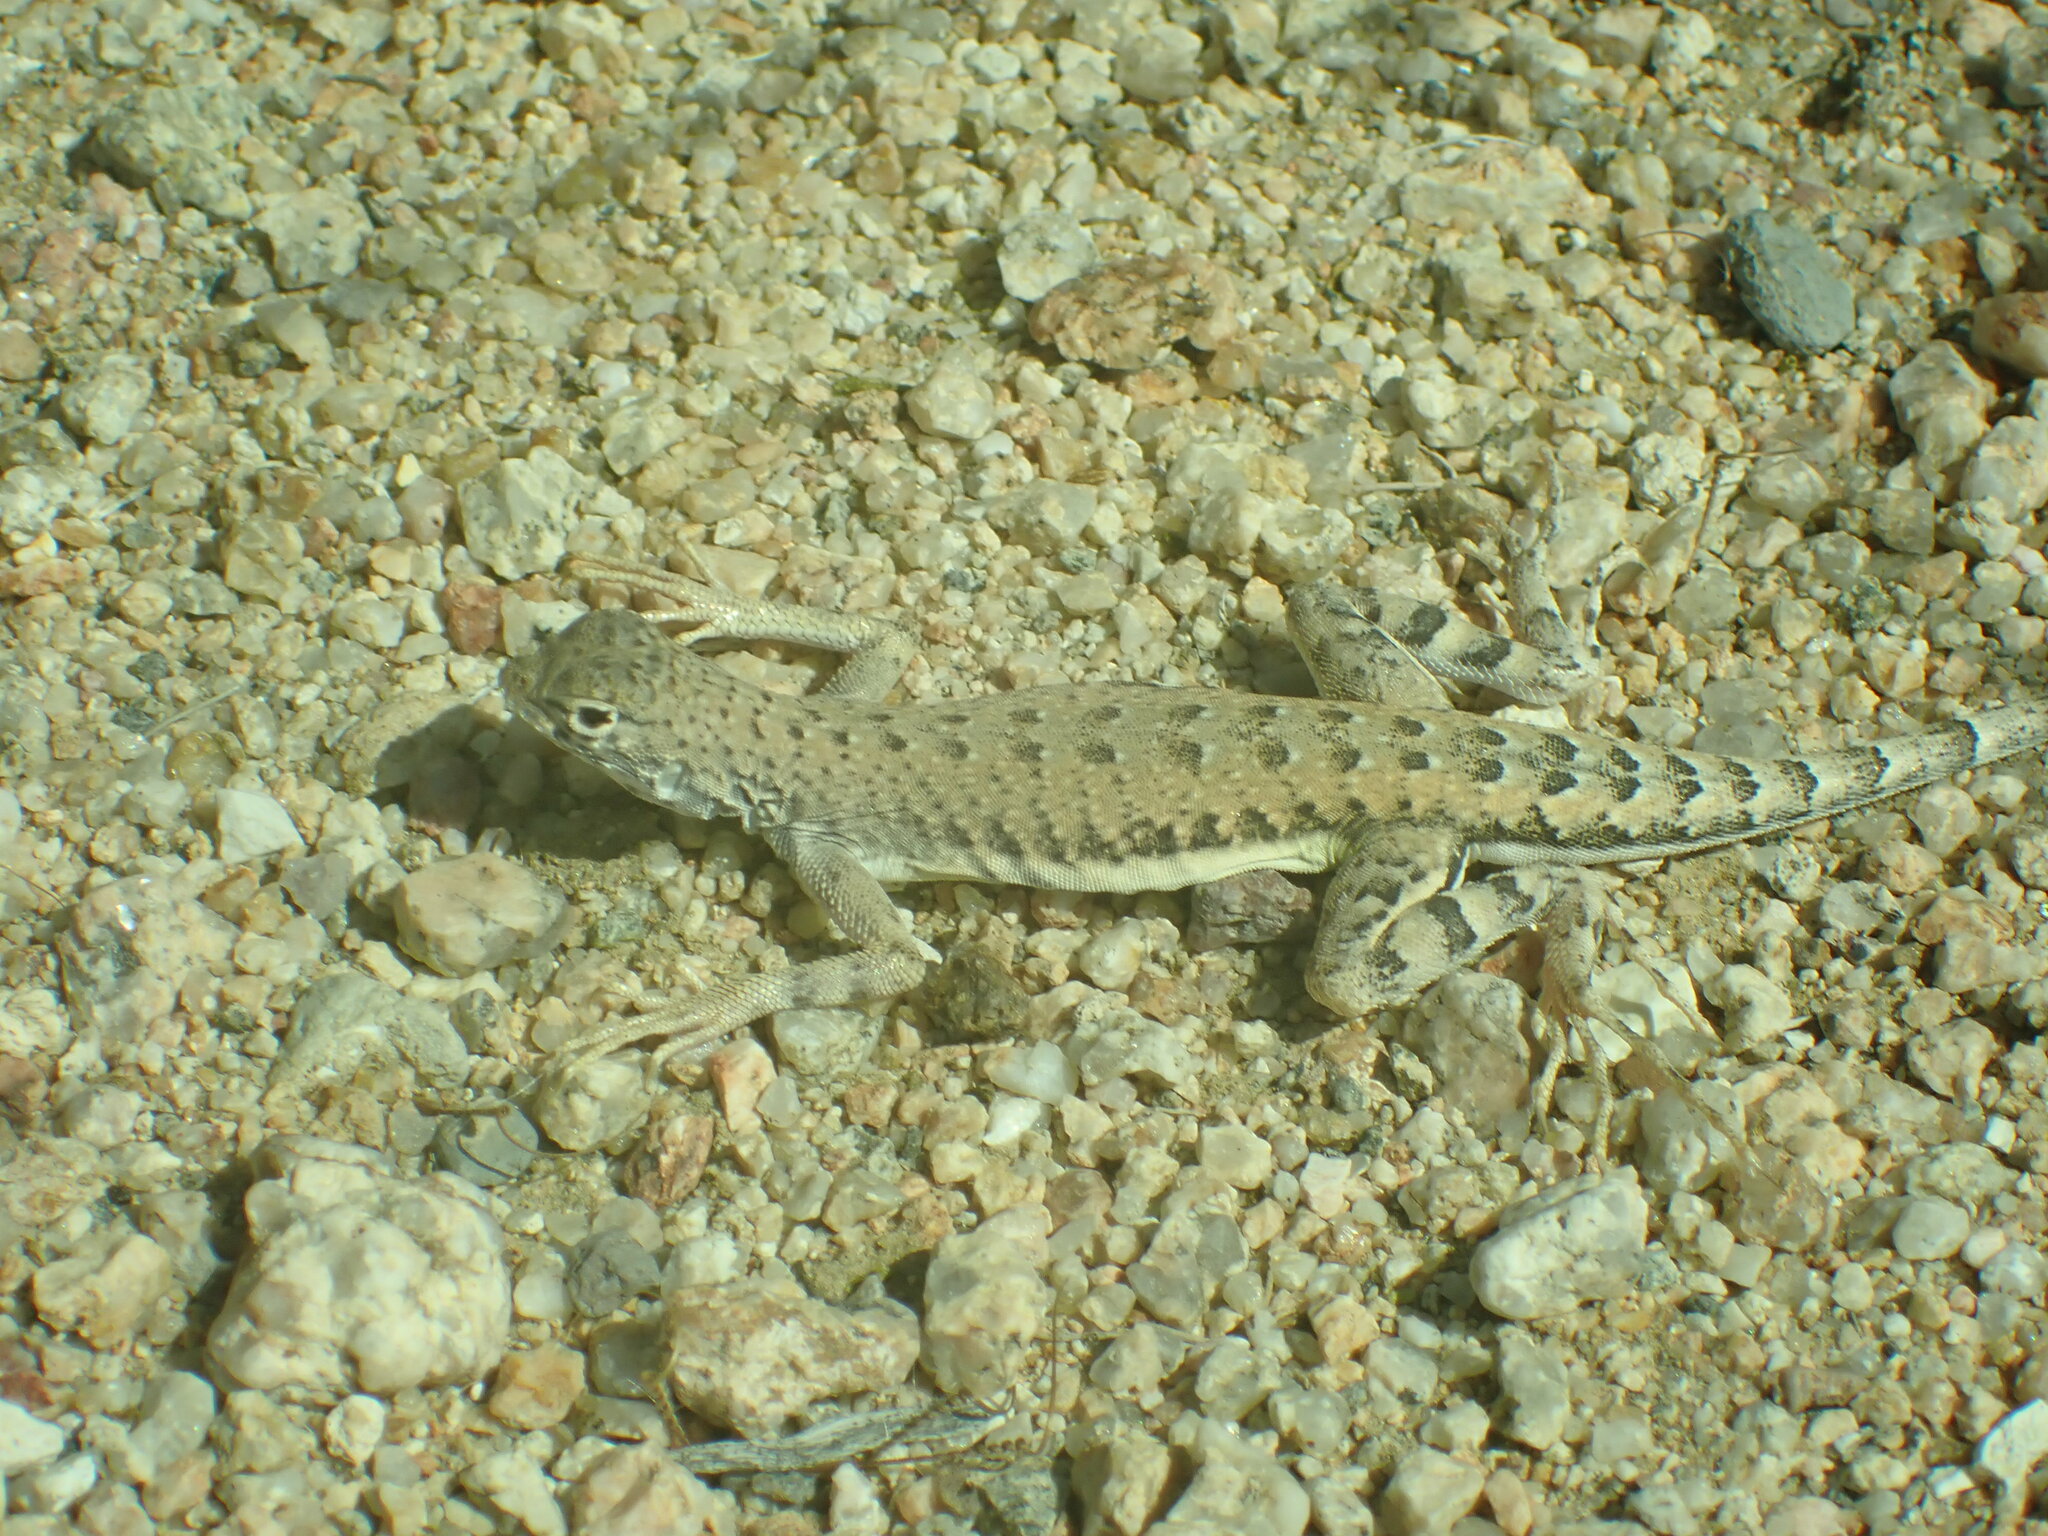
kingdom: Animalia
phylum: Chordata
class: Squamata
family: Phrynosomatidae
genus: Callisaurus
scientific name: Callisaurus draconoides
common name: Zebra-tailed lizard
